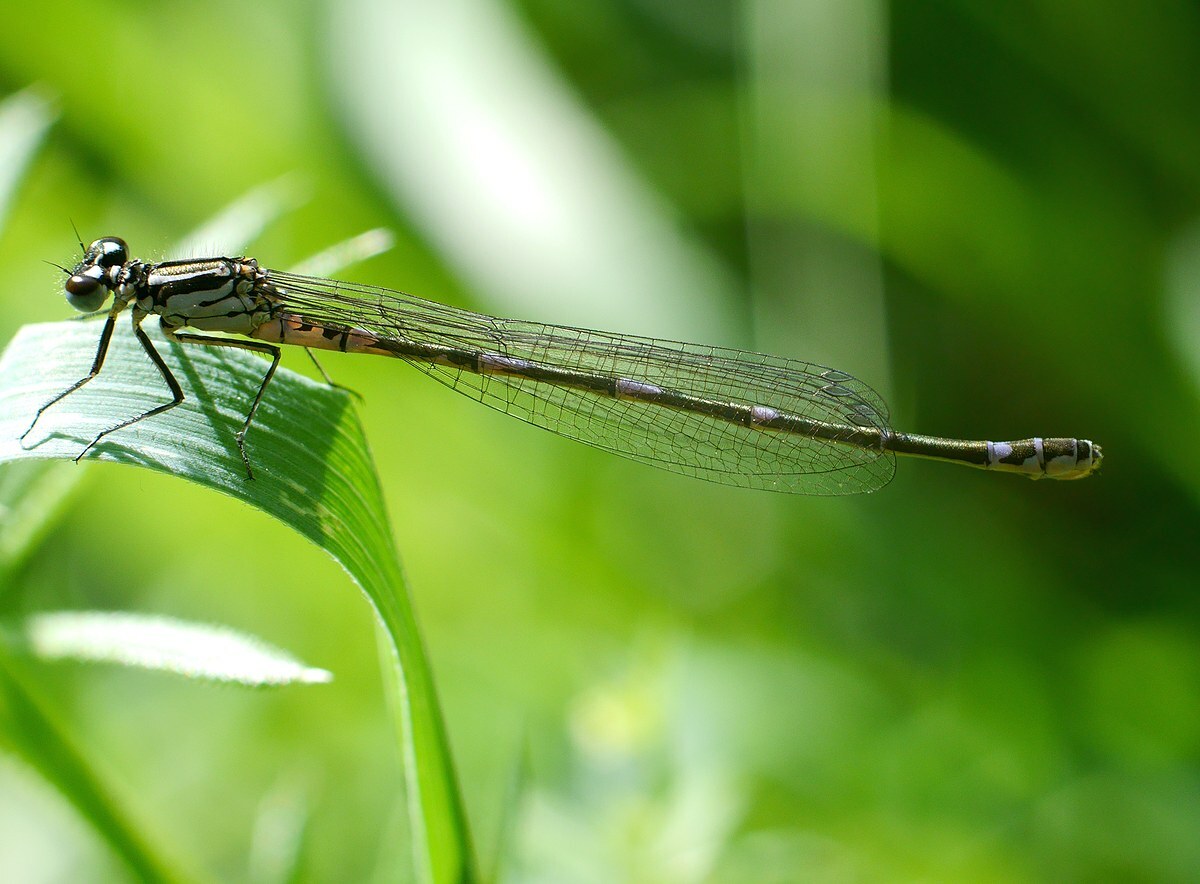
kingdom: Animalia
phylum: Arthropoda
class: Insecta
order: Odonata
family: Coenagrionidae
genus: Coenagrion
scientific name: Coenagrion pulchellum
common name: Variable bluet
